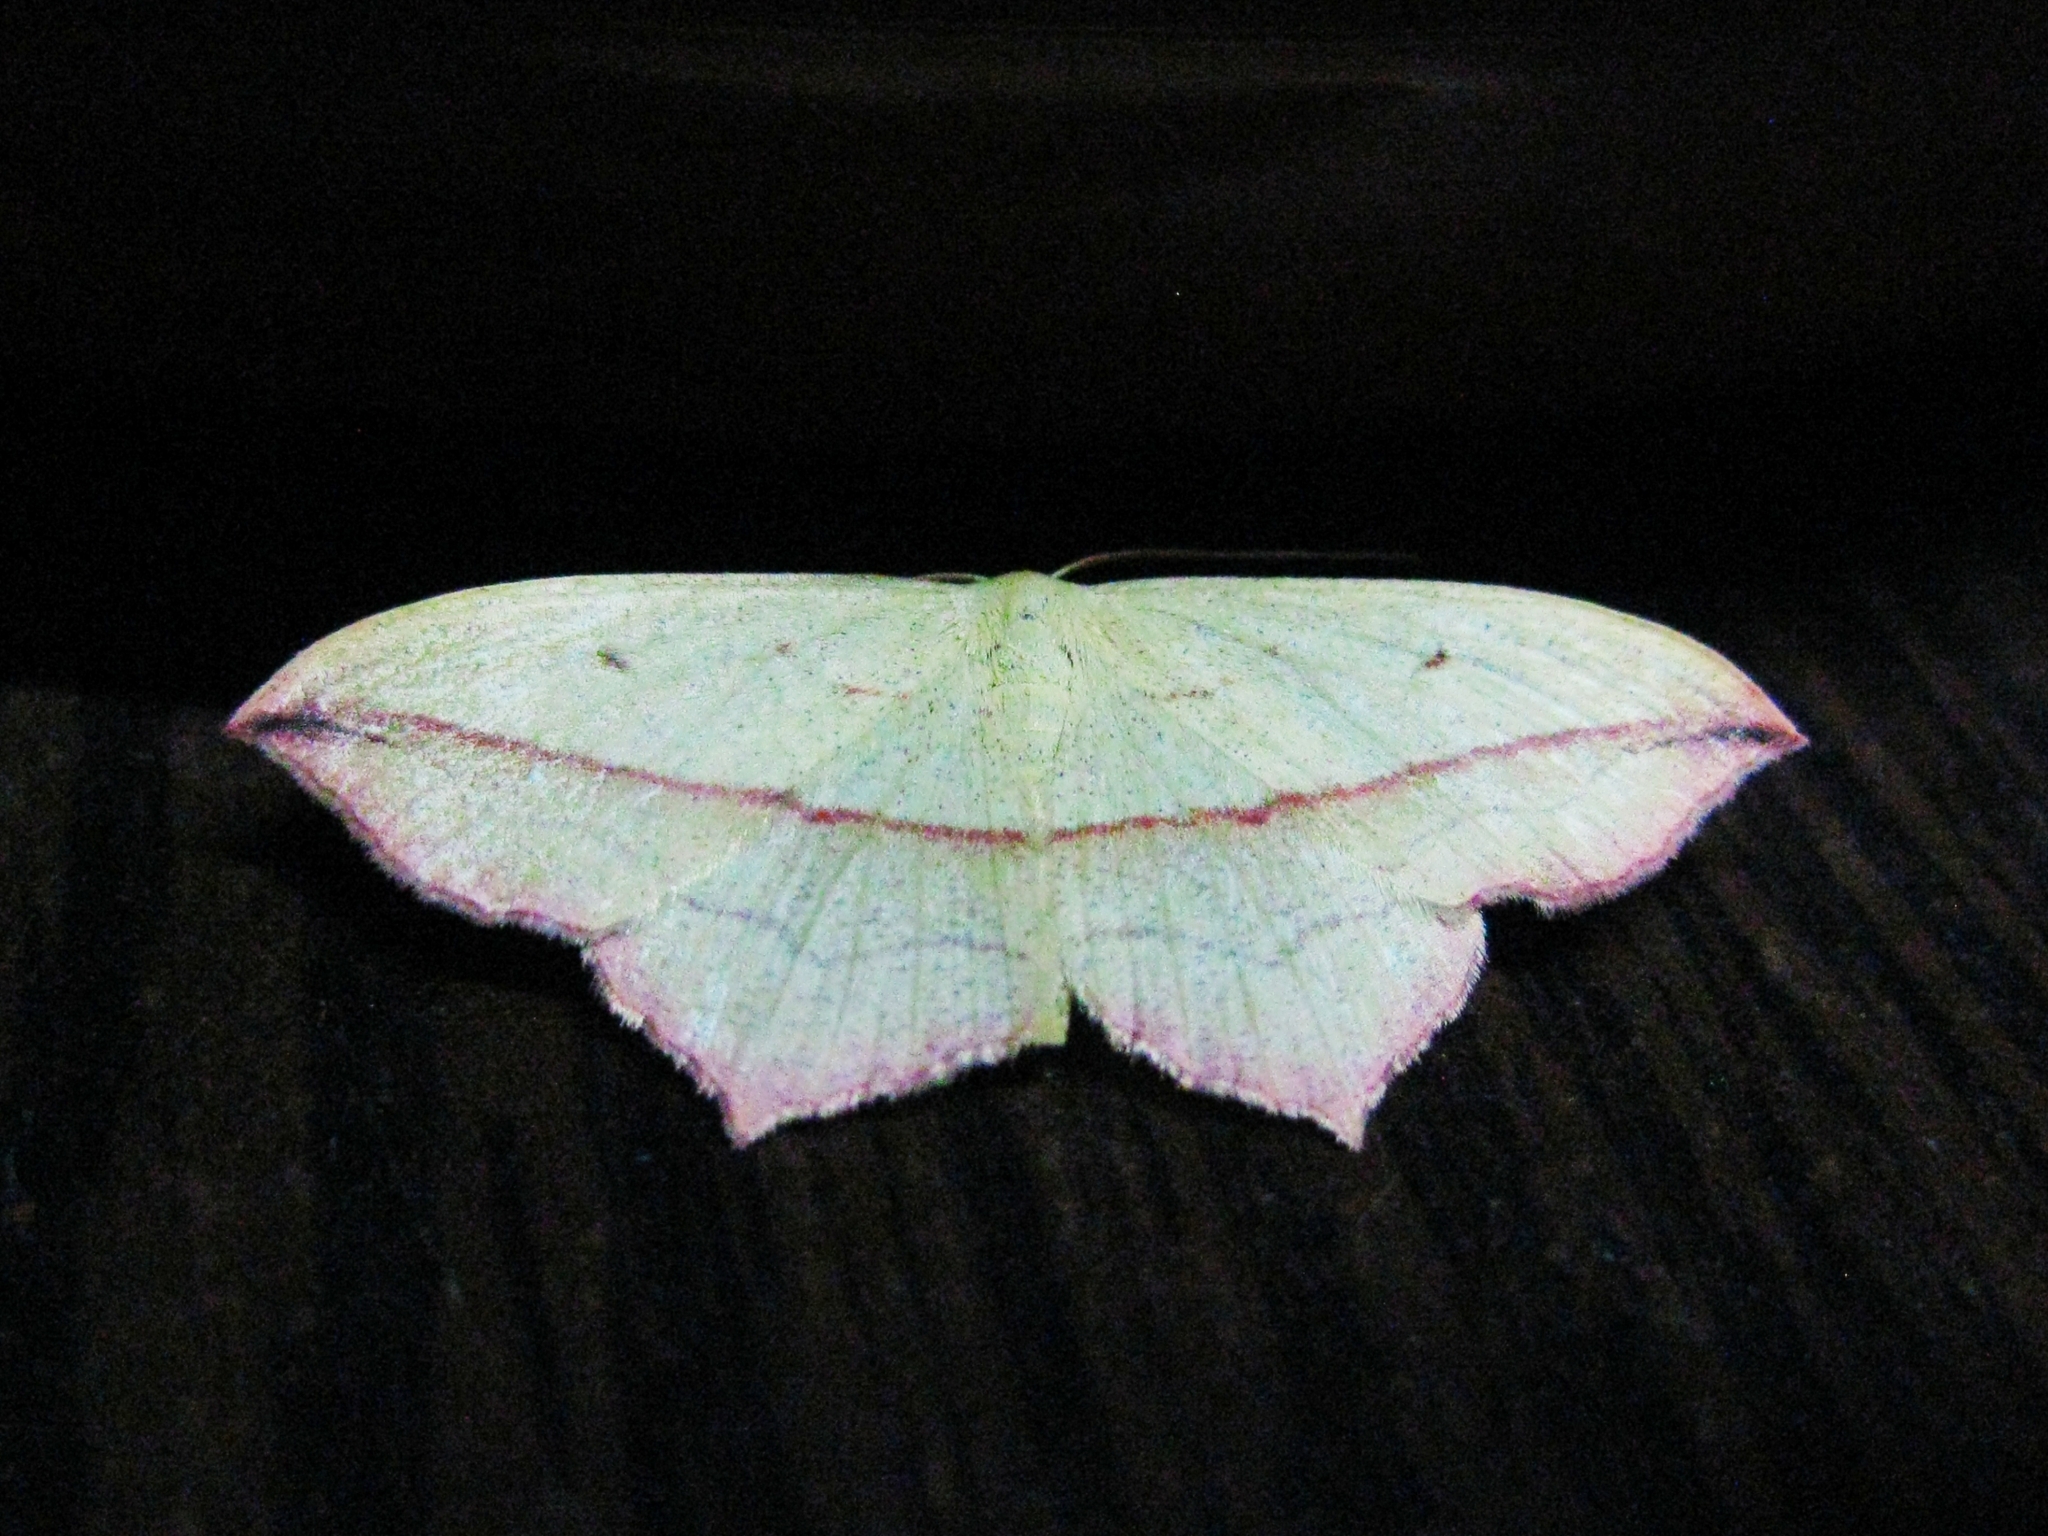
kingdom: Animalia
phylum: Arthropoda
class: Insecta
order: Lepidoptera
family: Geometridae
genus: Timandra
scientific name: Timandra comae
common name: Blood-vein
